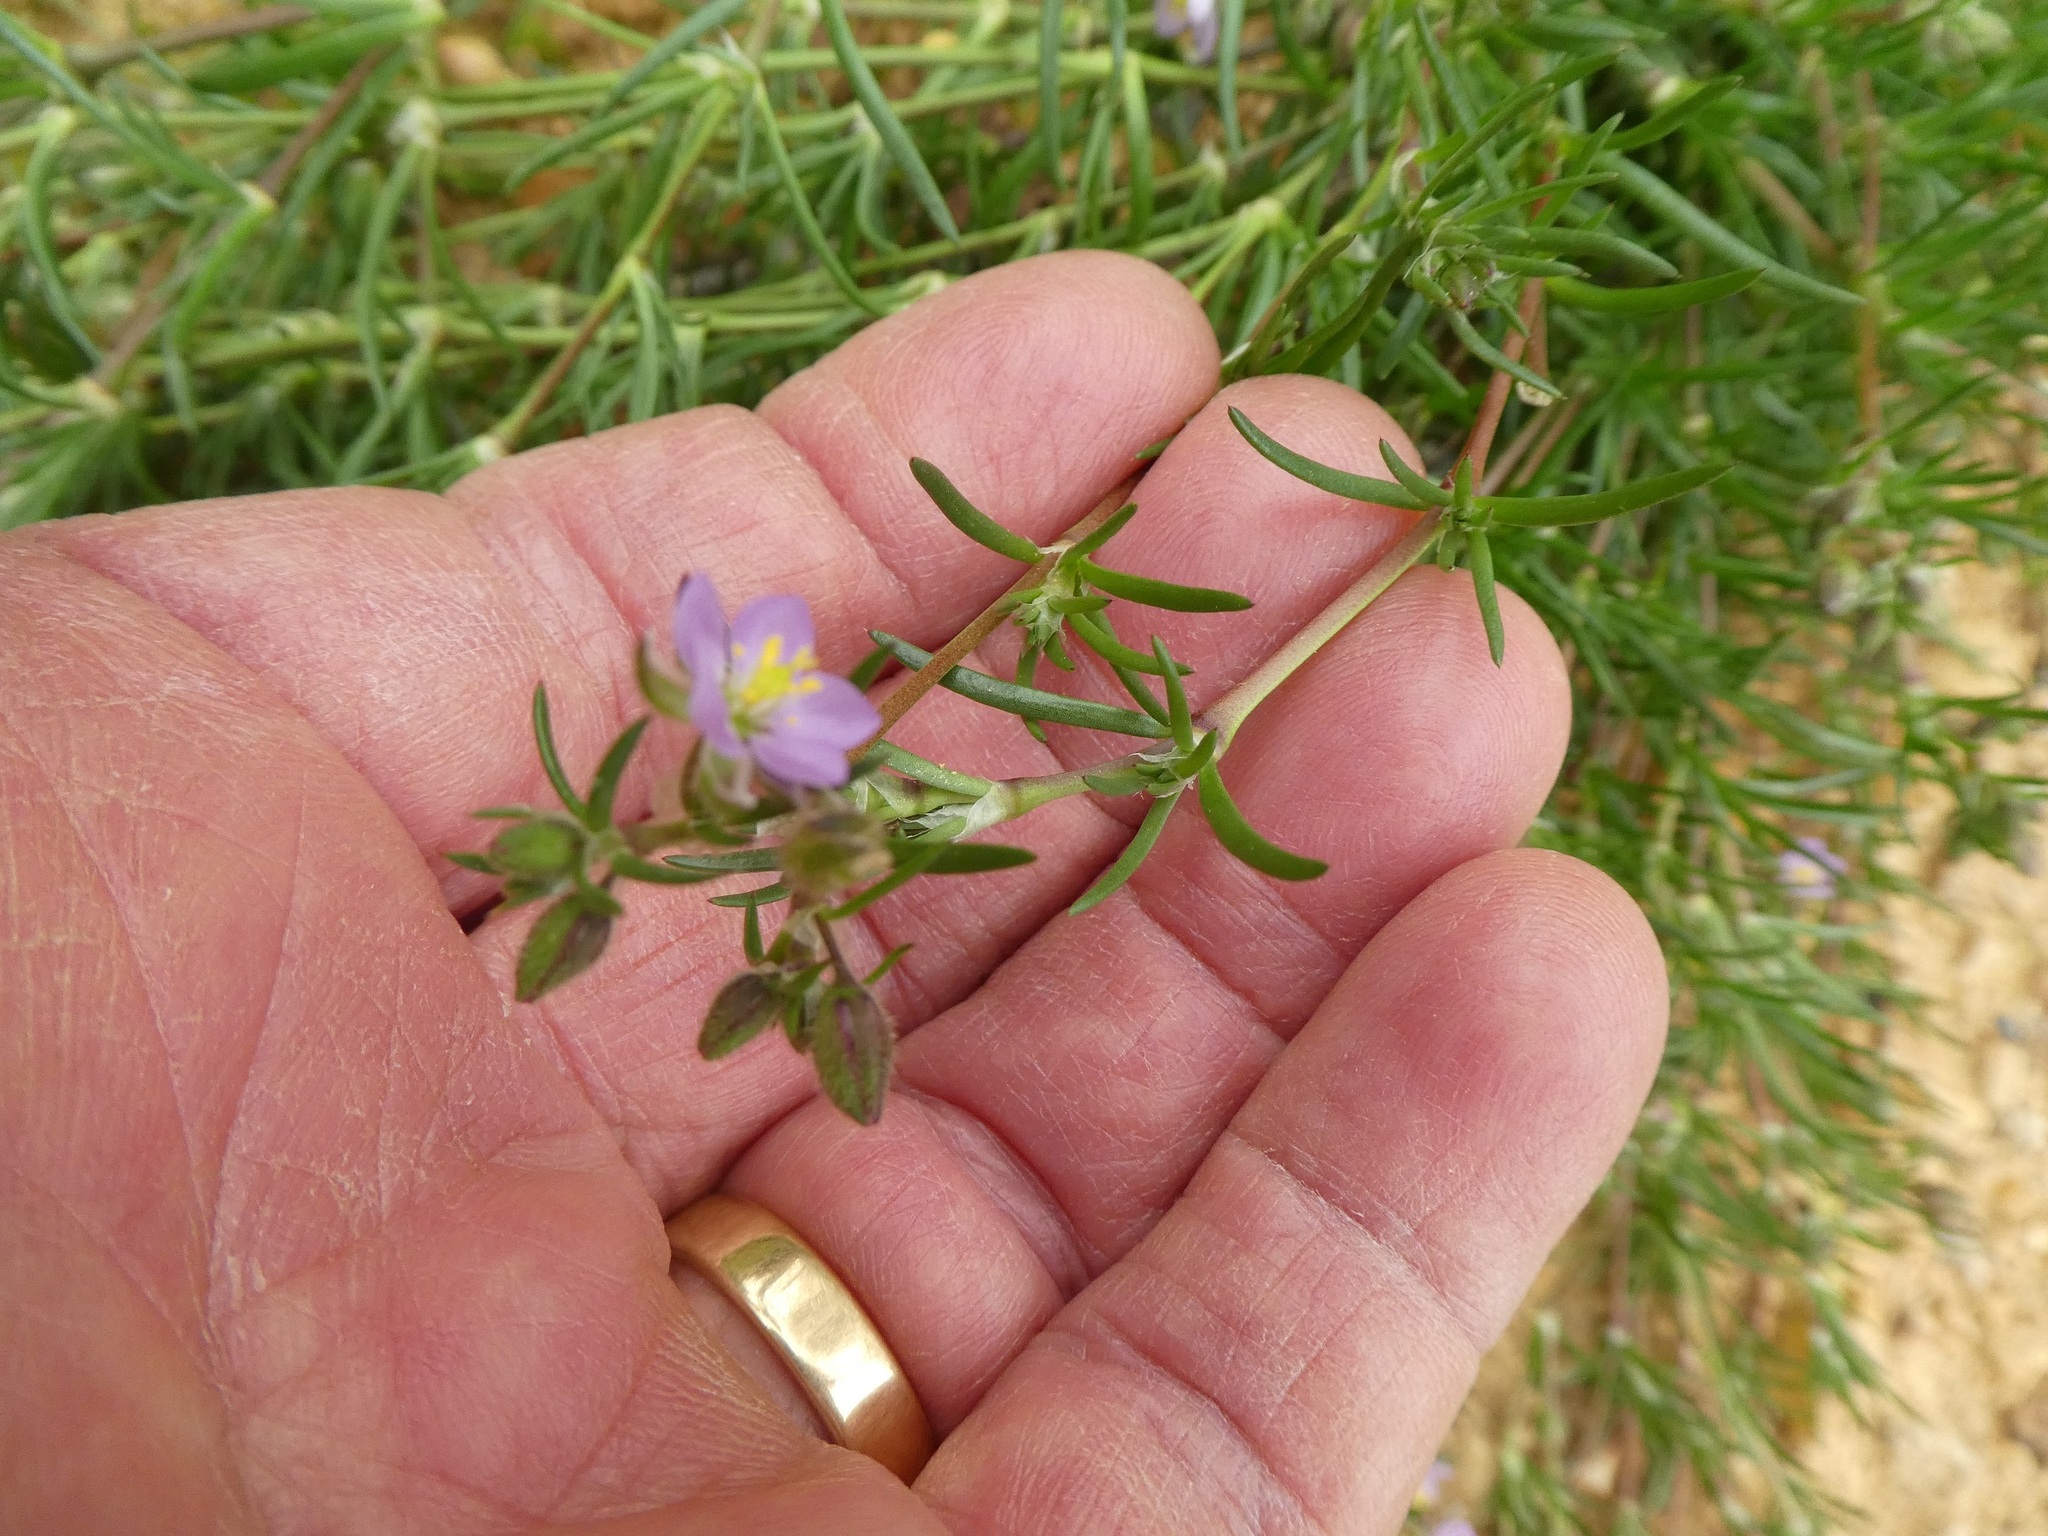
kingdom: Plantae
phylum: Tracheophyta
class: Magnoliopsida
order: Caryophyllales
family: Caryophyllaceae
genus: Spergularia
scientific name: Spergularia rubra
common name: Red sand-spurrey
